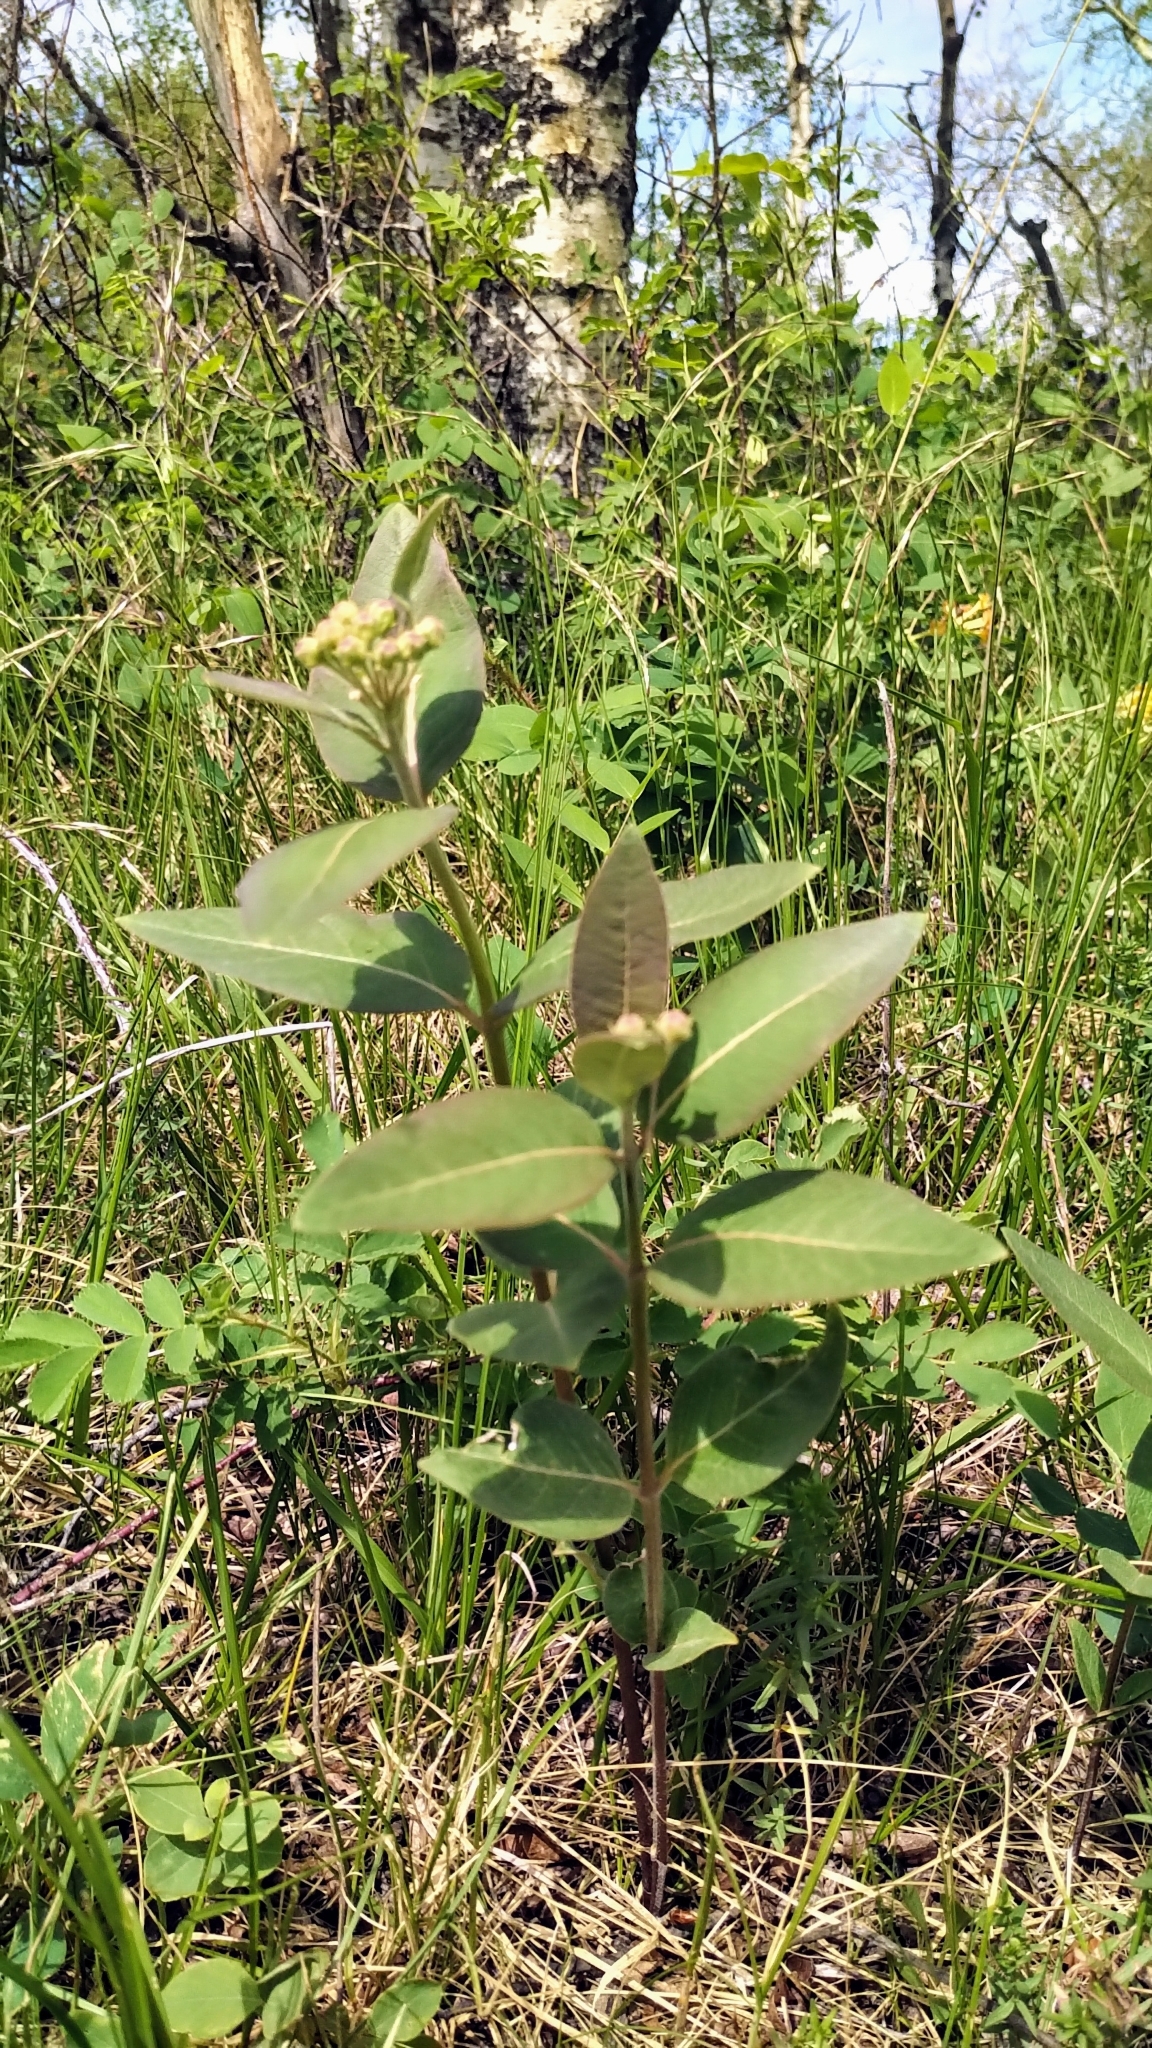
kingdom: Plantae
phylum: Tracheophyta
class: Magnoliopsida
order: Gentianales
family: Apocynaceae
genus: Asclepias
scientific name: Asclepias ovalifolia
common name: Dwarf milkweed
